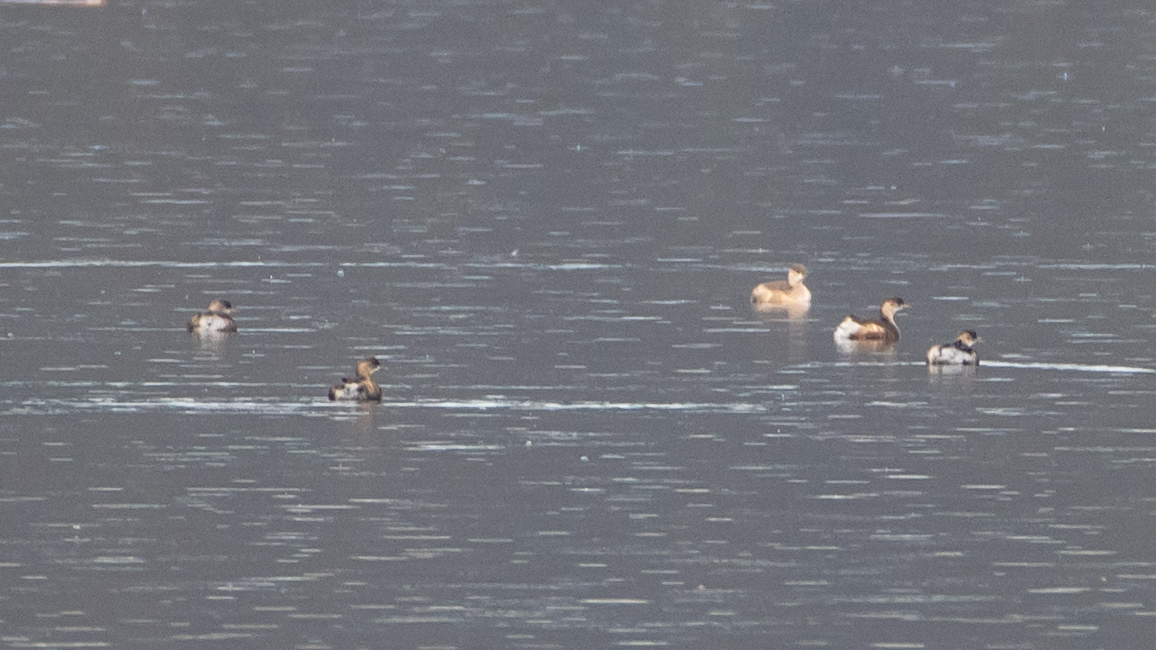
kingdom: Animalia
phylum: Chordata
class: Aves
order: Podicipediformes
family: Podicipedidae
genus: Tachybaptus
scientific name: Tachybaptus ruficollis
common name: Little grebe
